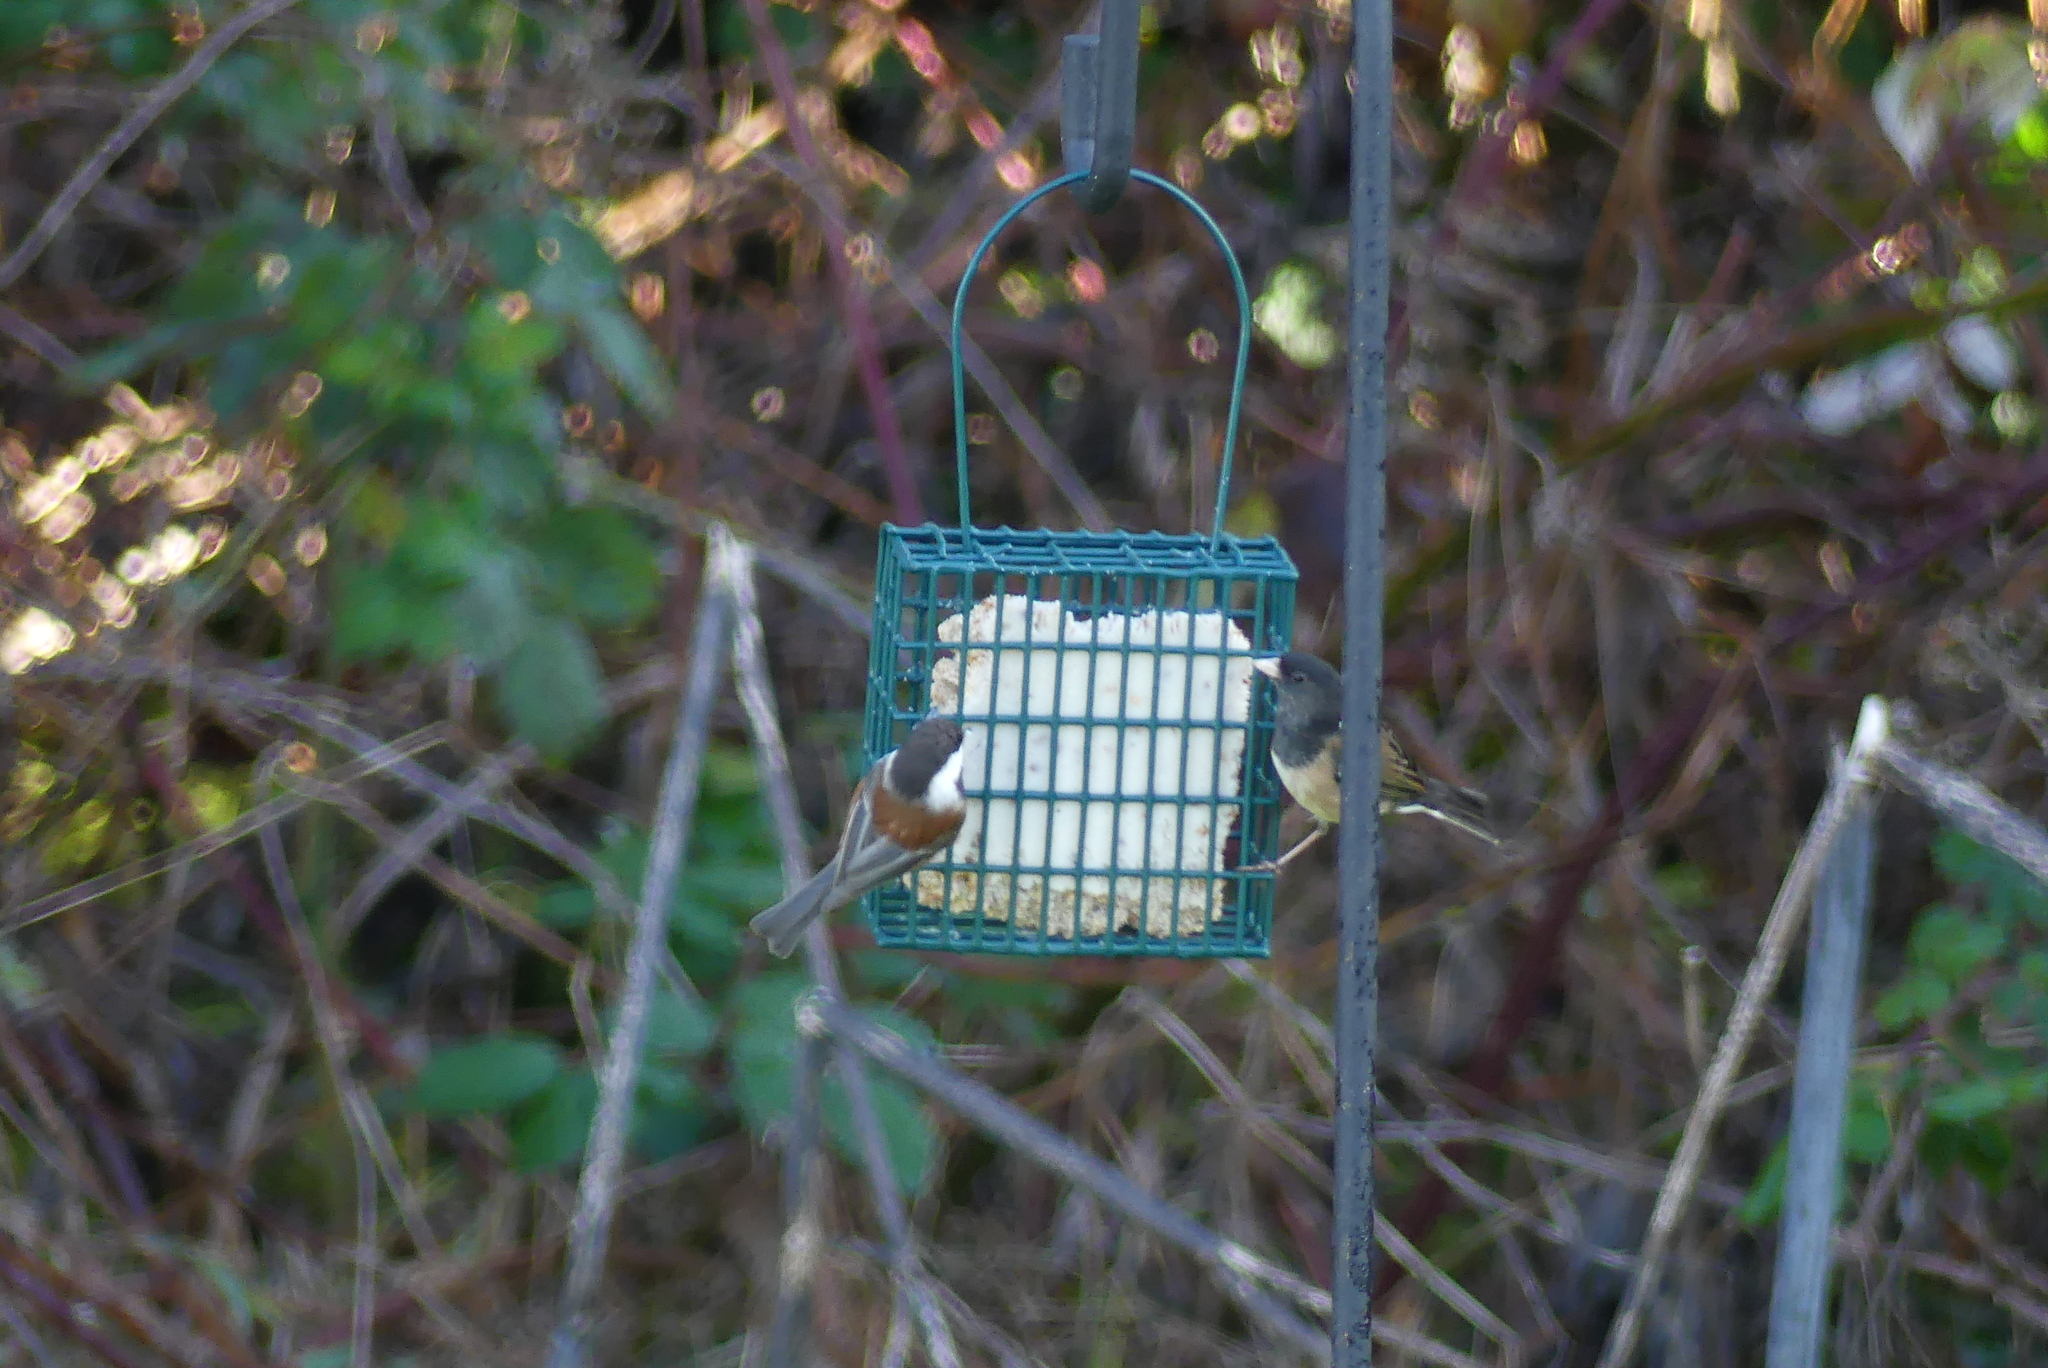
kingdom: Animalia
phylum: Chordata
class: Aves
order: Passeriformes
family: Paridae
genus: Poecile
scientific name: Poecile rufescens
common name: Chestnut-backed chickadee
